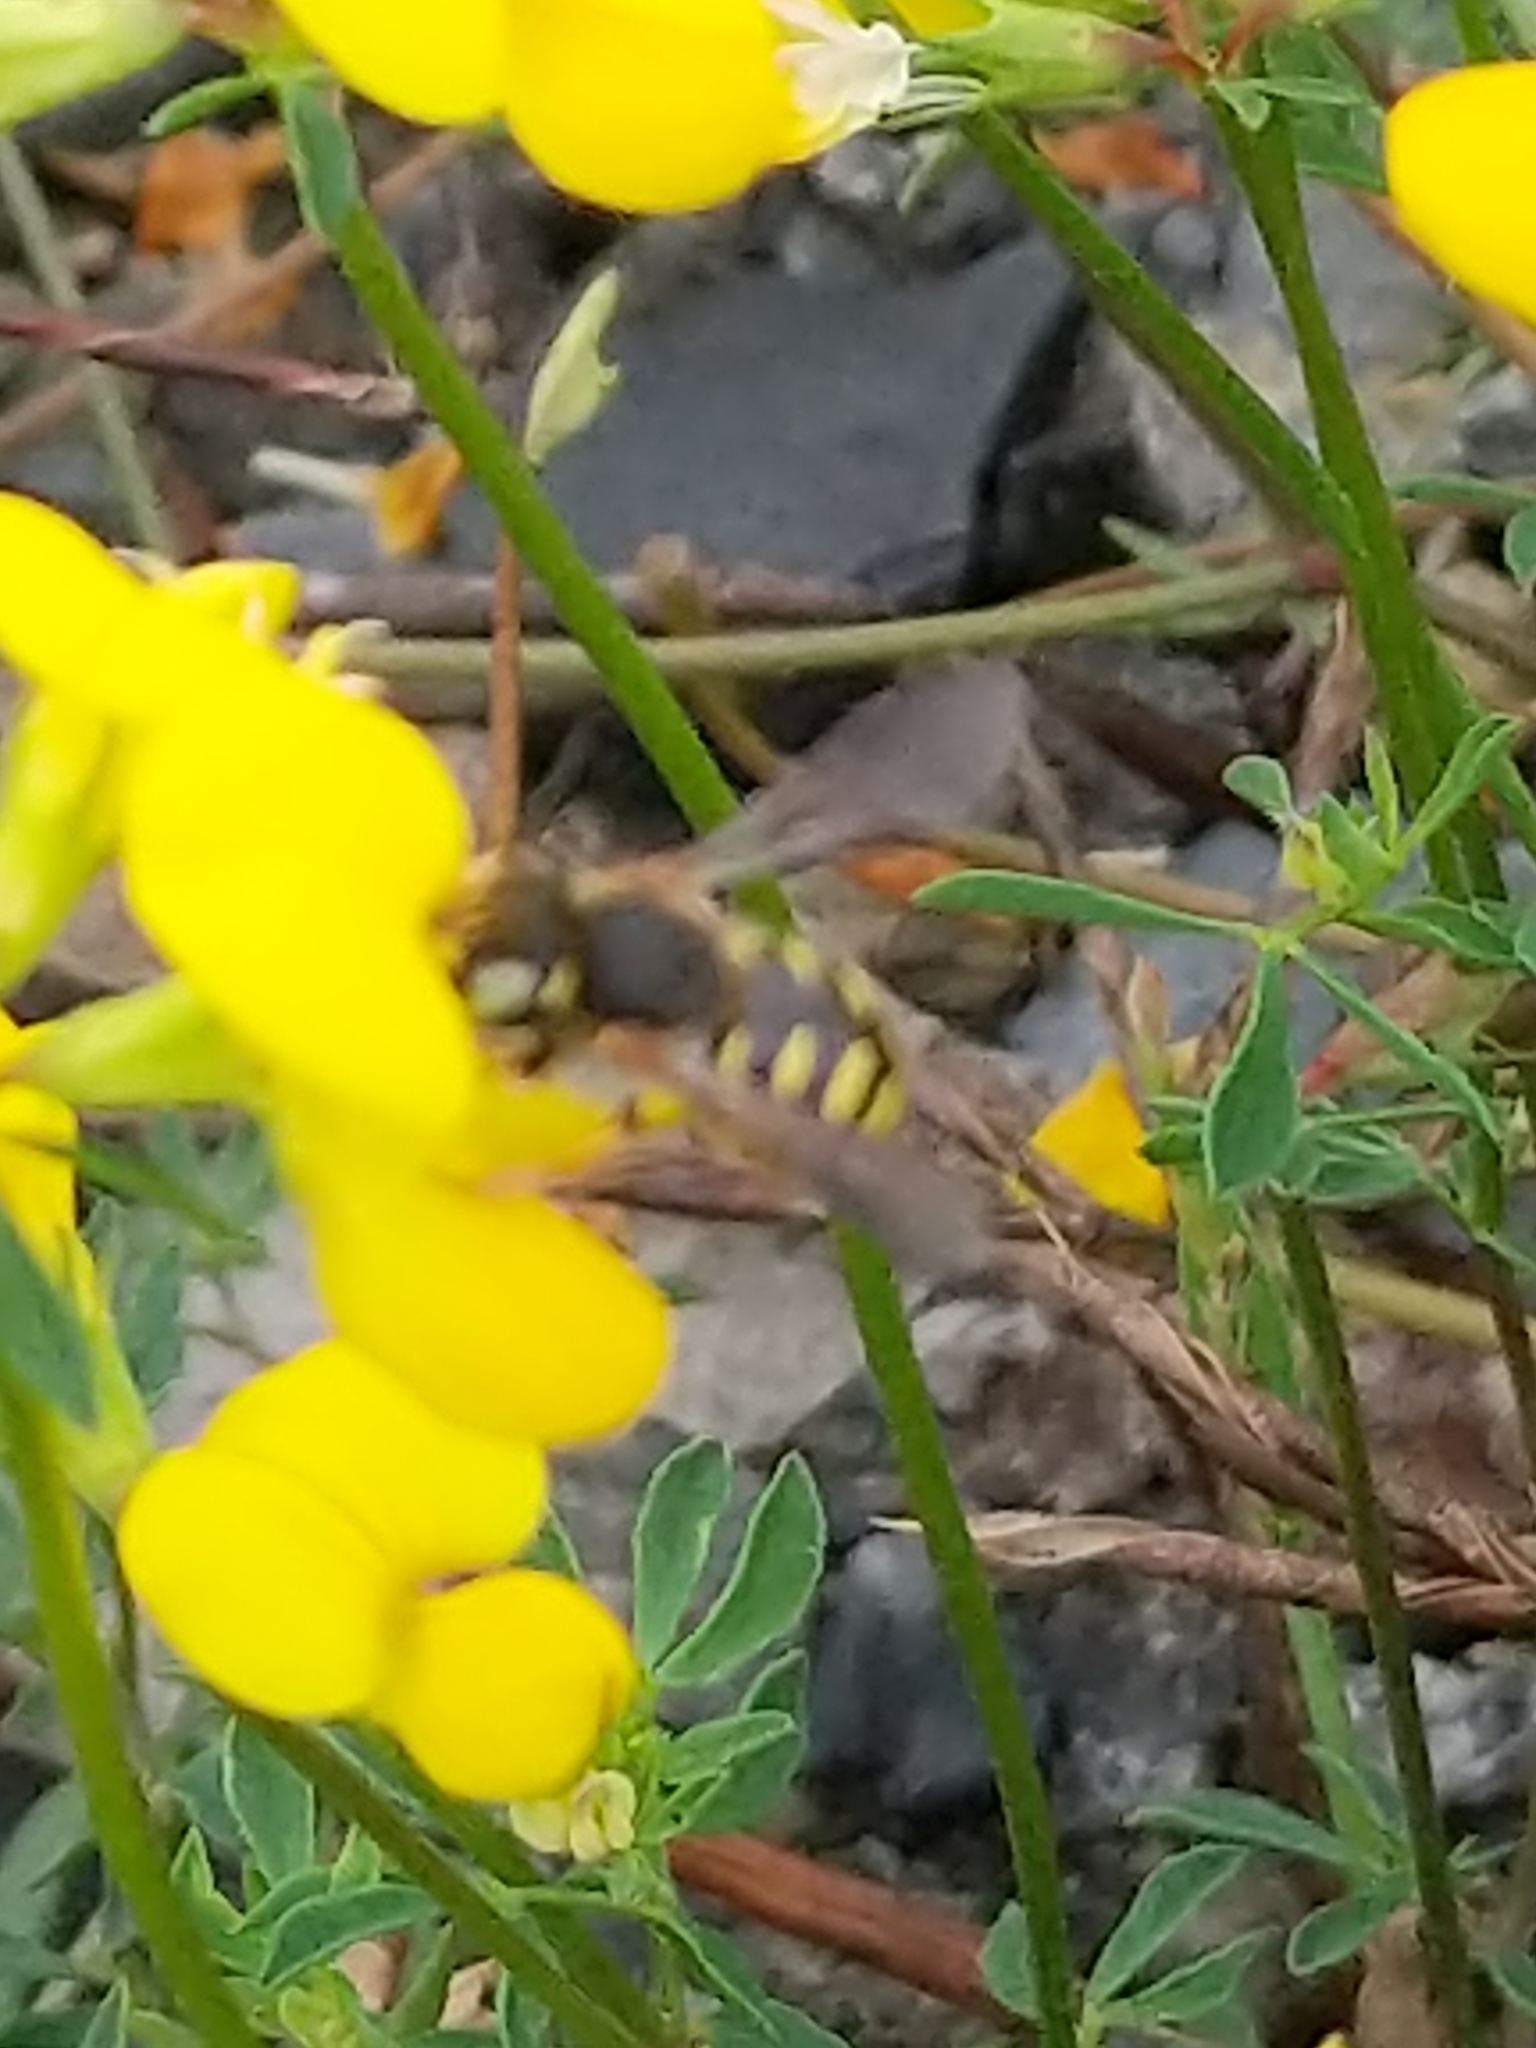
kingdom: Animalia
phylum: Arthropoda
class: Insecta
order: Hymenoptera
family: Megachilidae
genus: Anthidium
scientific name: Anthidium oblongatum
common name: Oblong wool carder bee
